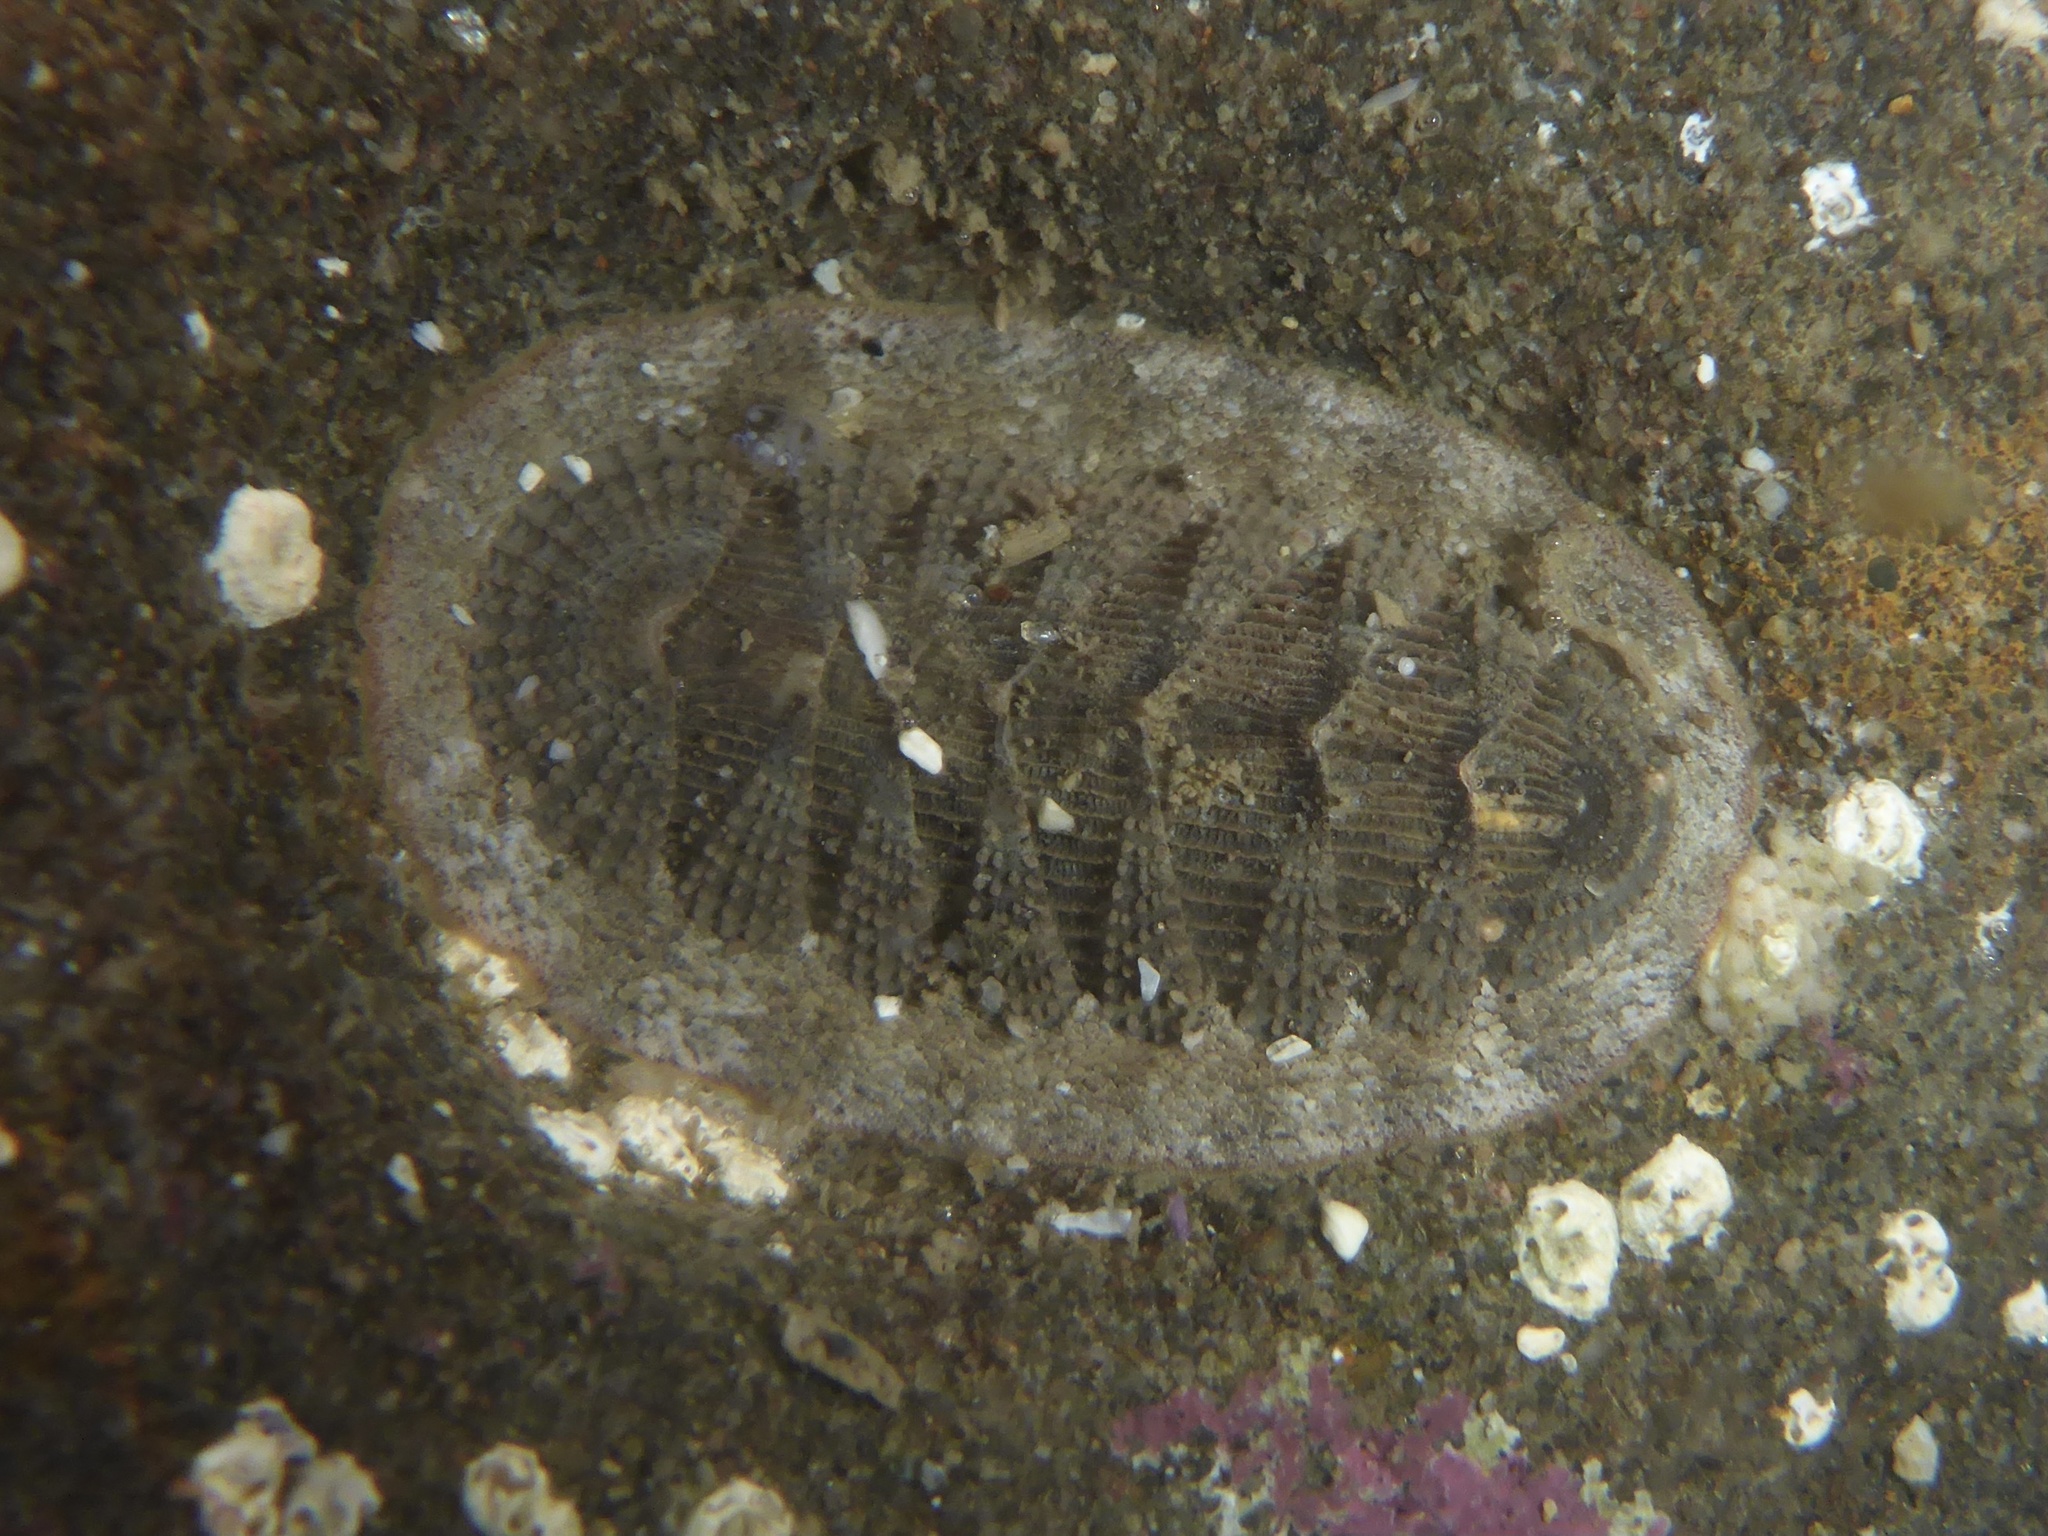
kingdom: Animalia
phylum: Mollusca
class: Polyplacophora
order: Chitonida
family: Ischnochitonidae
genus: Lepidozona
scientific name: Lepidozona cooperi
